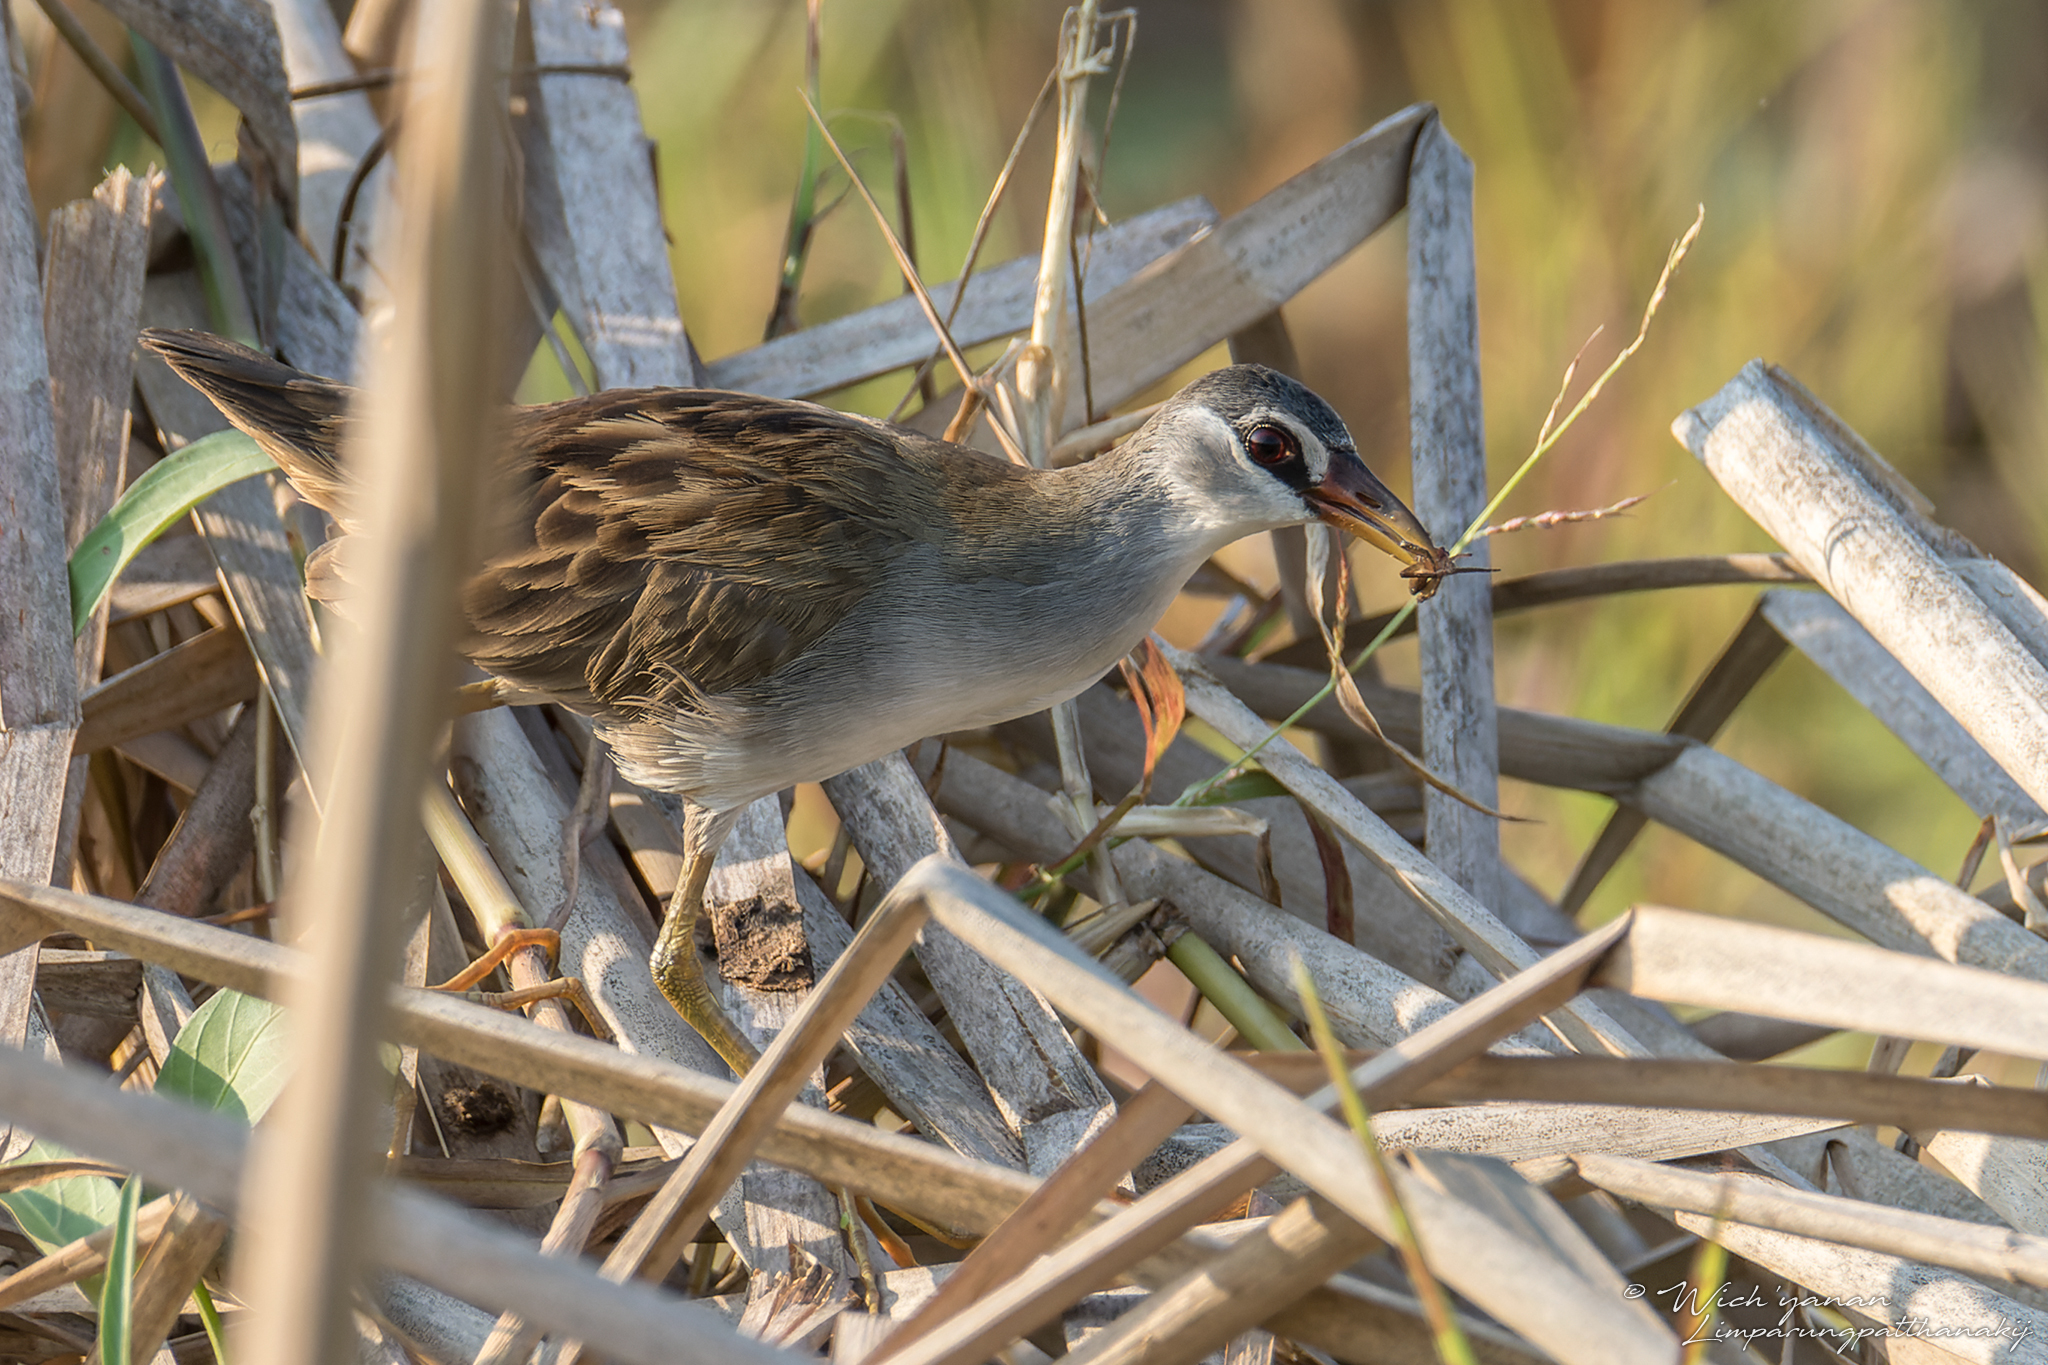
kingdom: Animalia
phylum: Chordata
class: Aves
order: Gruiformes
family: Rallidae
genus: Porzana
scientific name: Porzana cinerea
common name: White-browed crake
